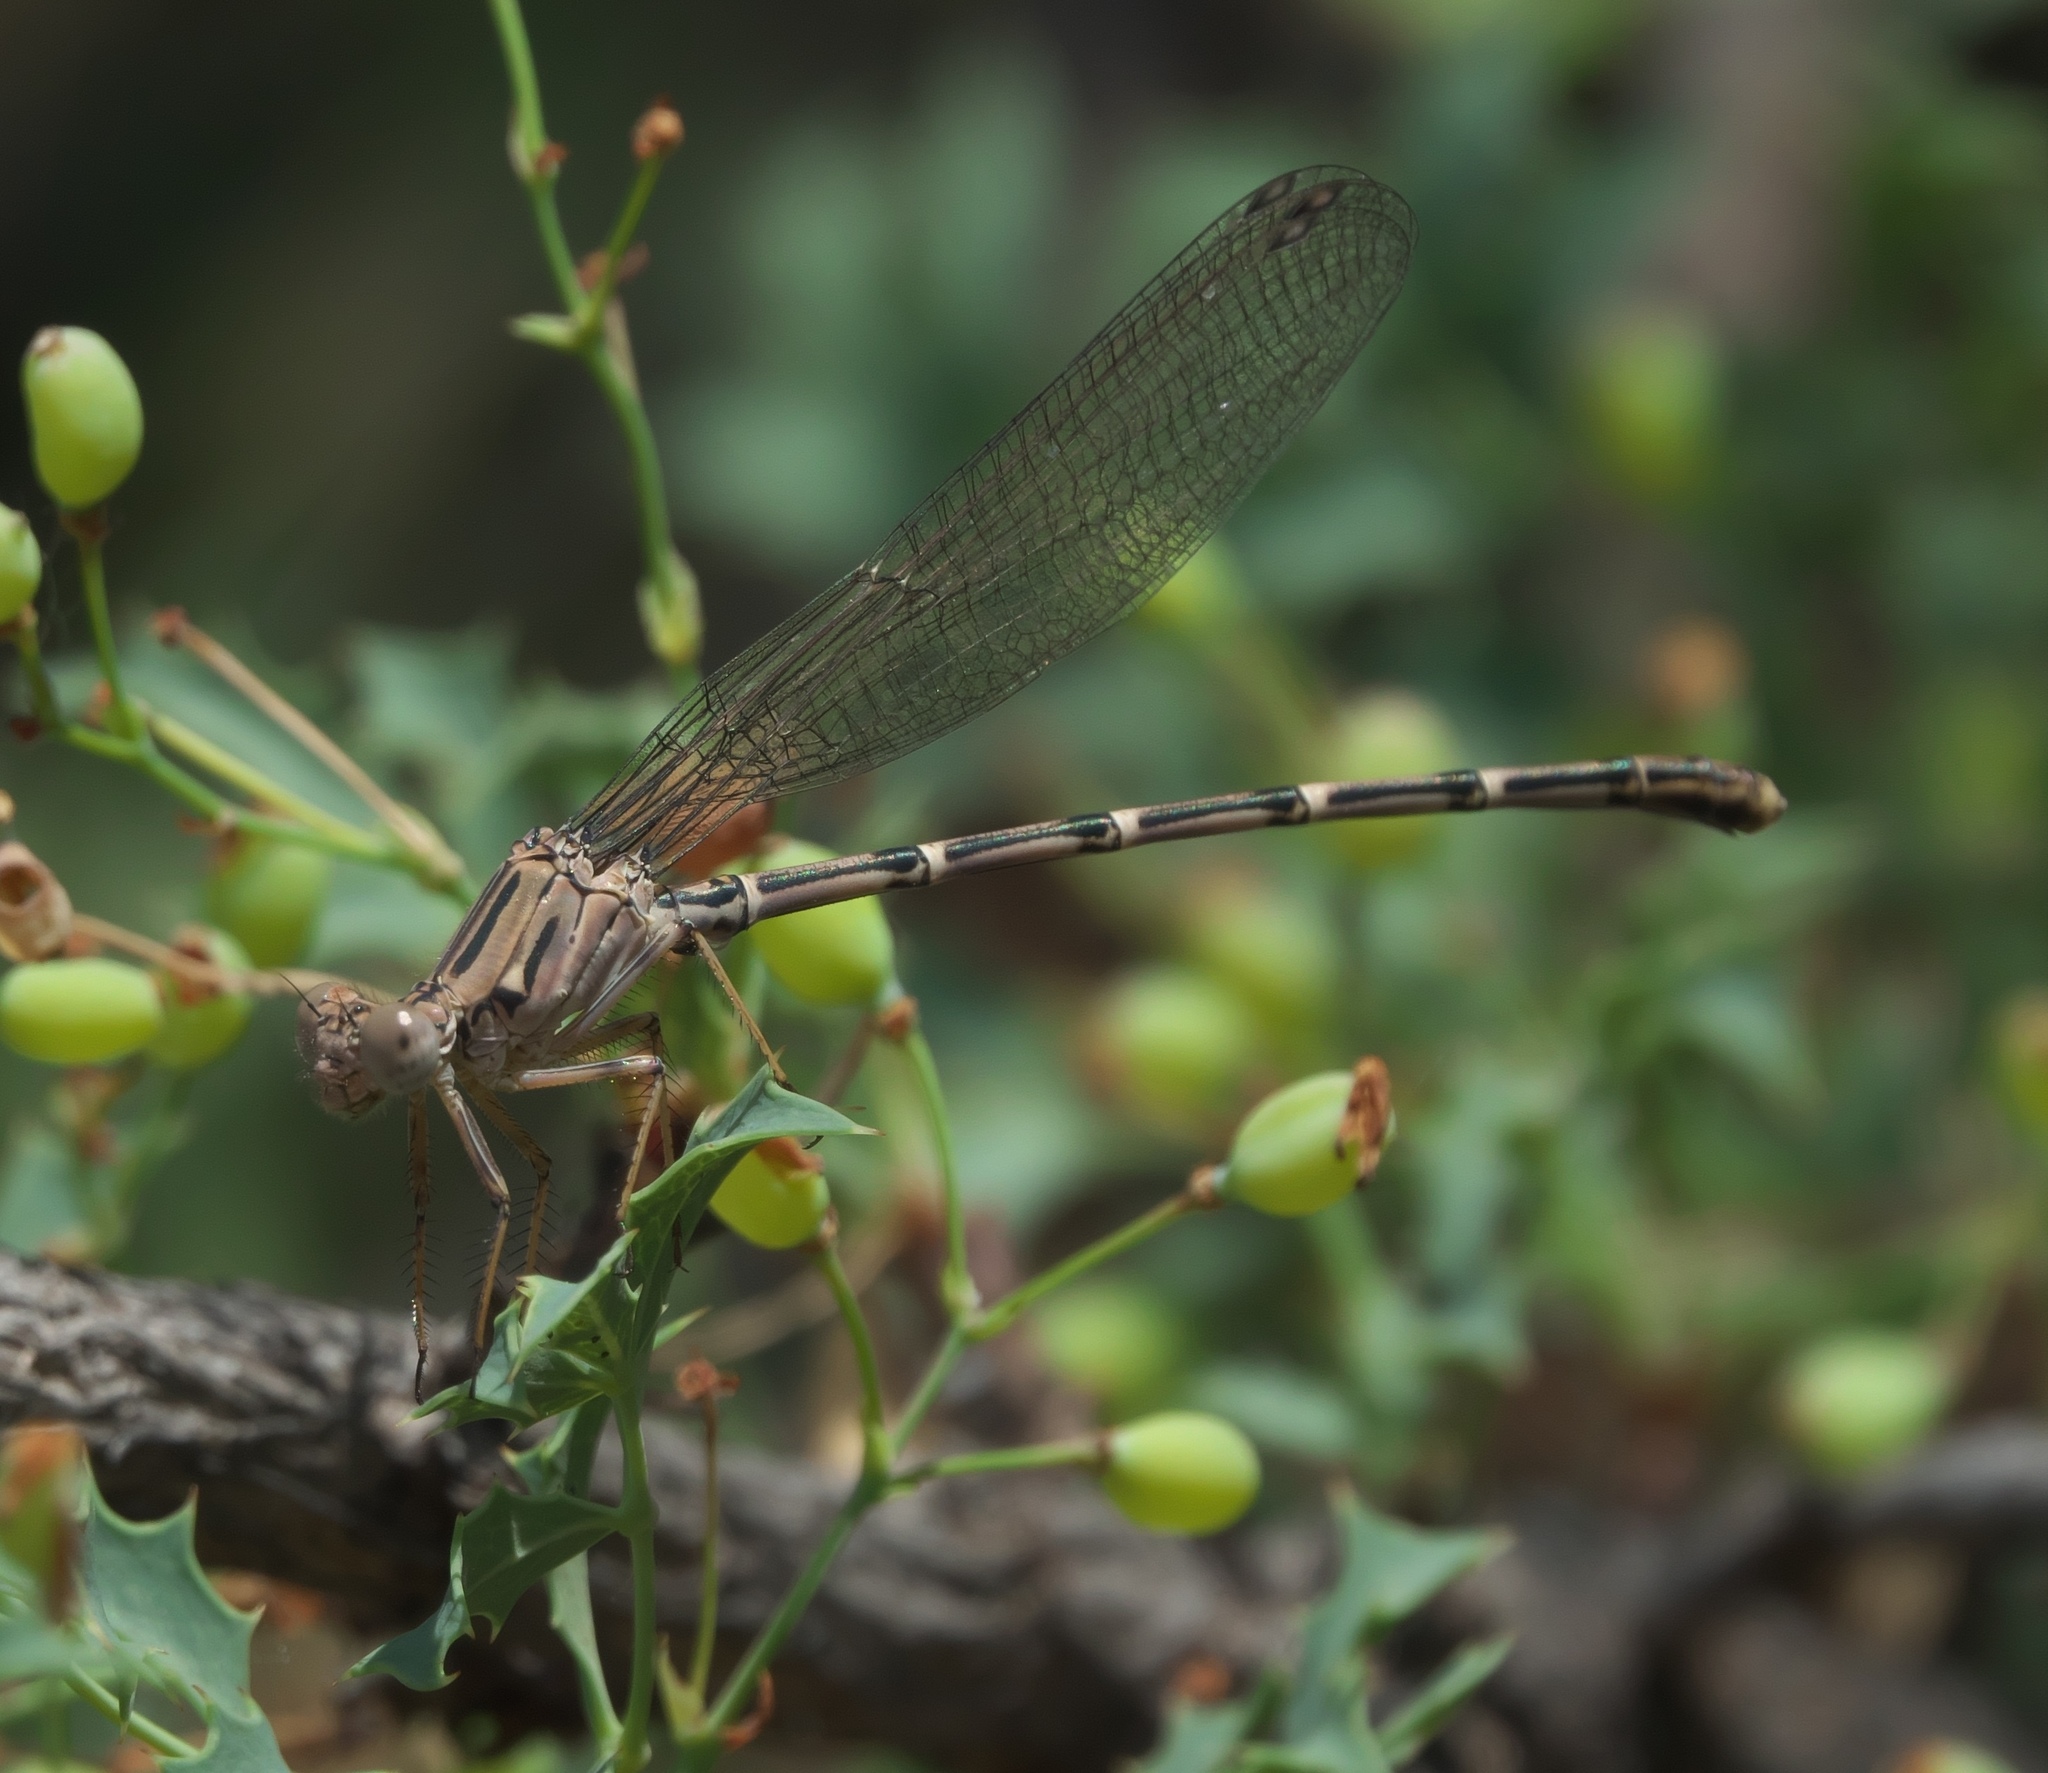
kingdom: Animalia
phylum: Arthropoda
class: Insecta
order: Odonata
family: Coenagrionidae
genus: Argia
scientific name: Argia lugens
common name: Sooty dancer
